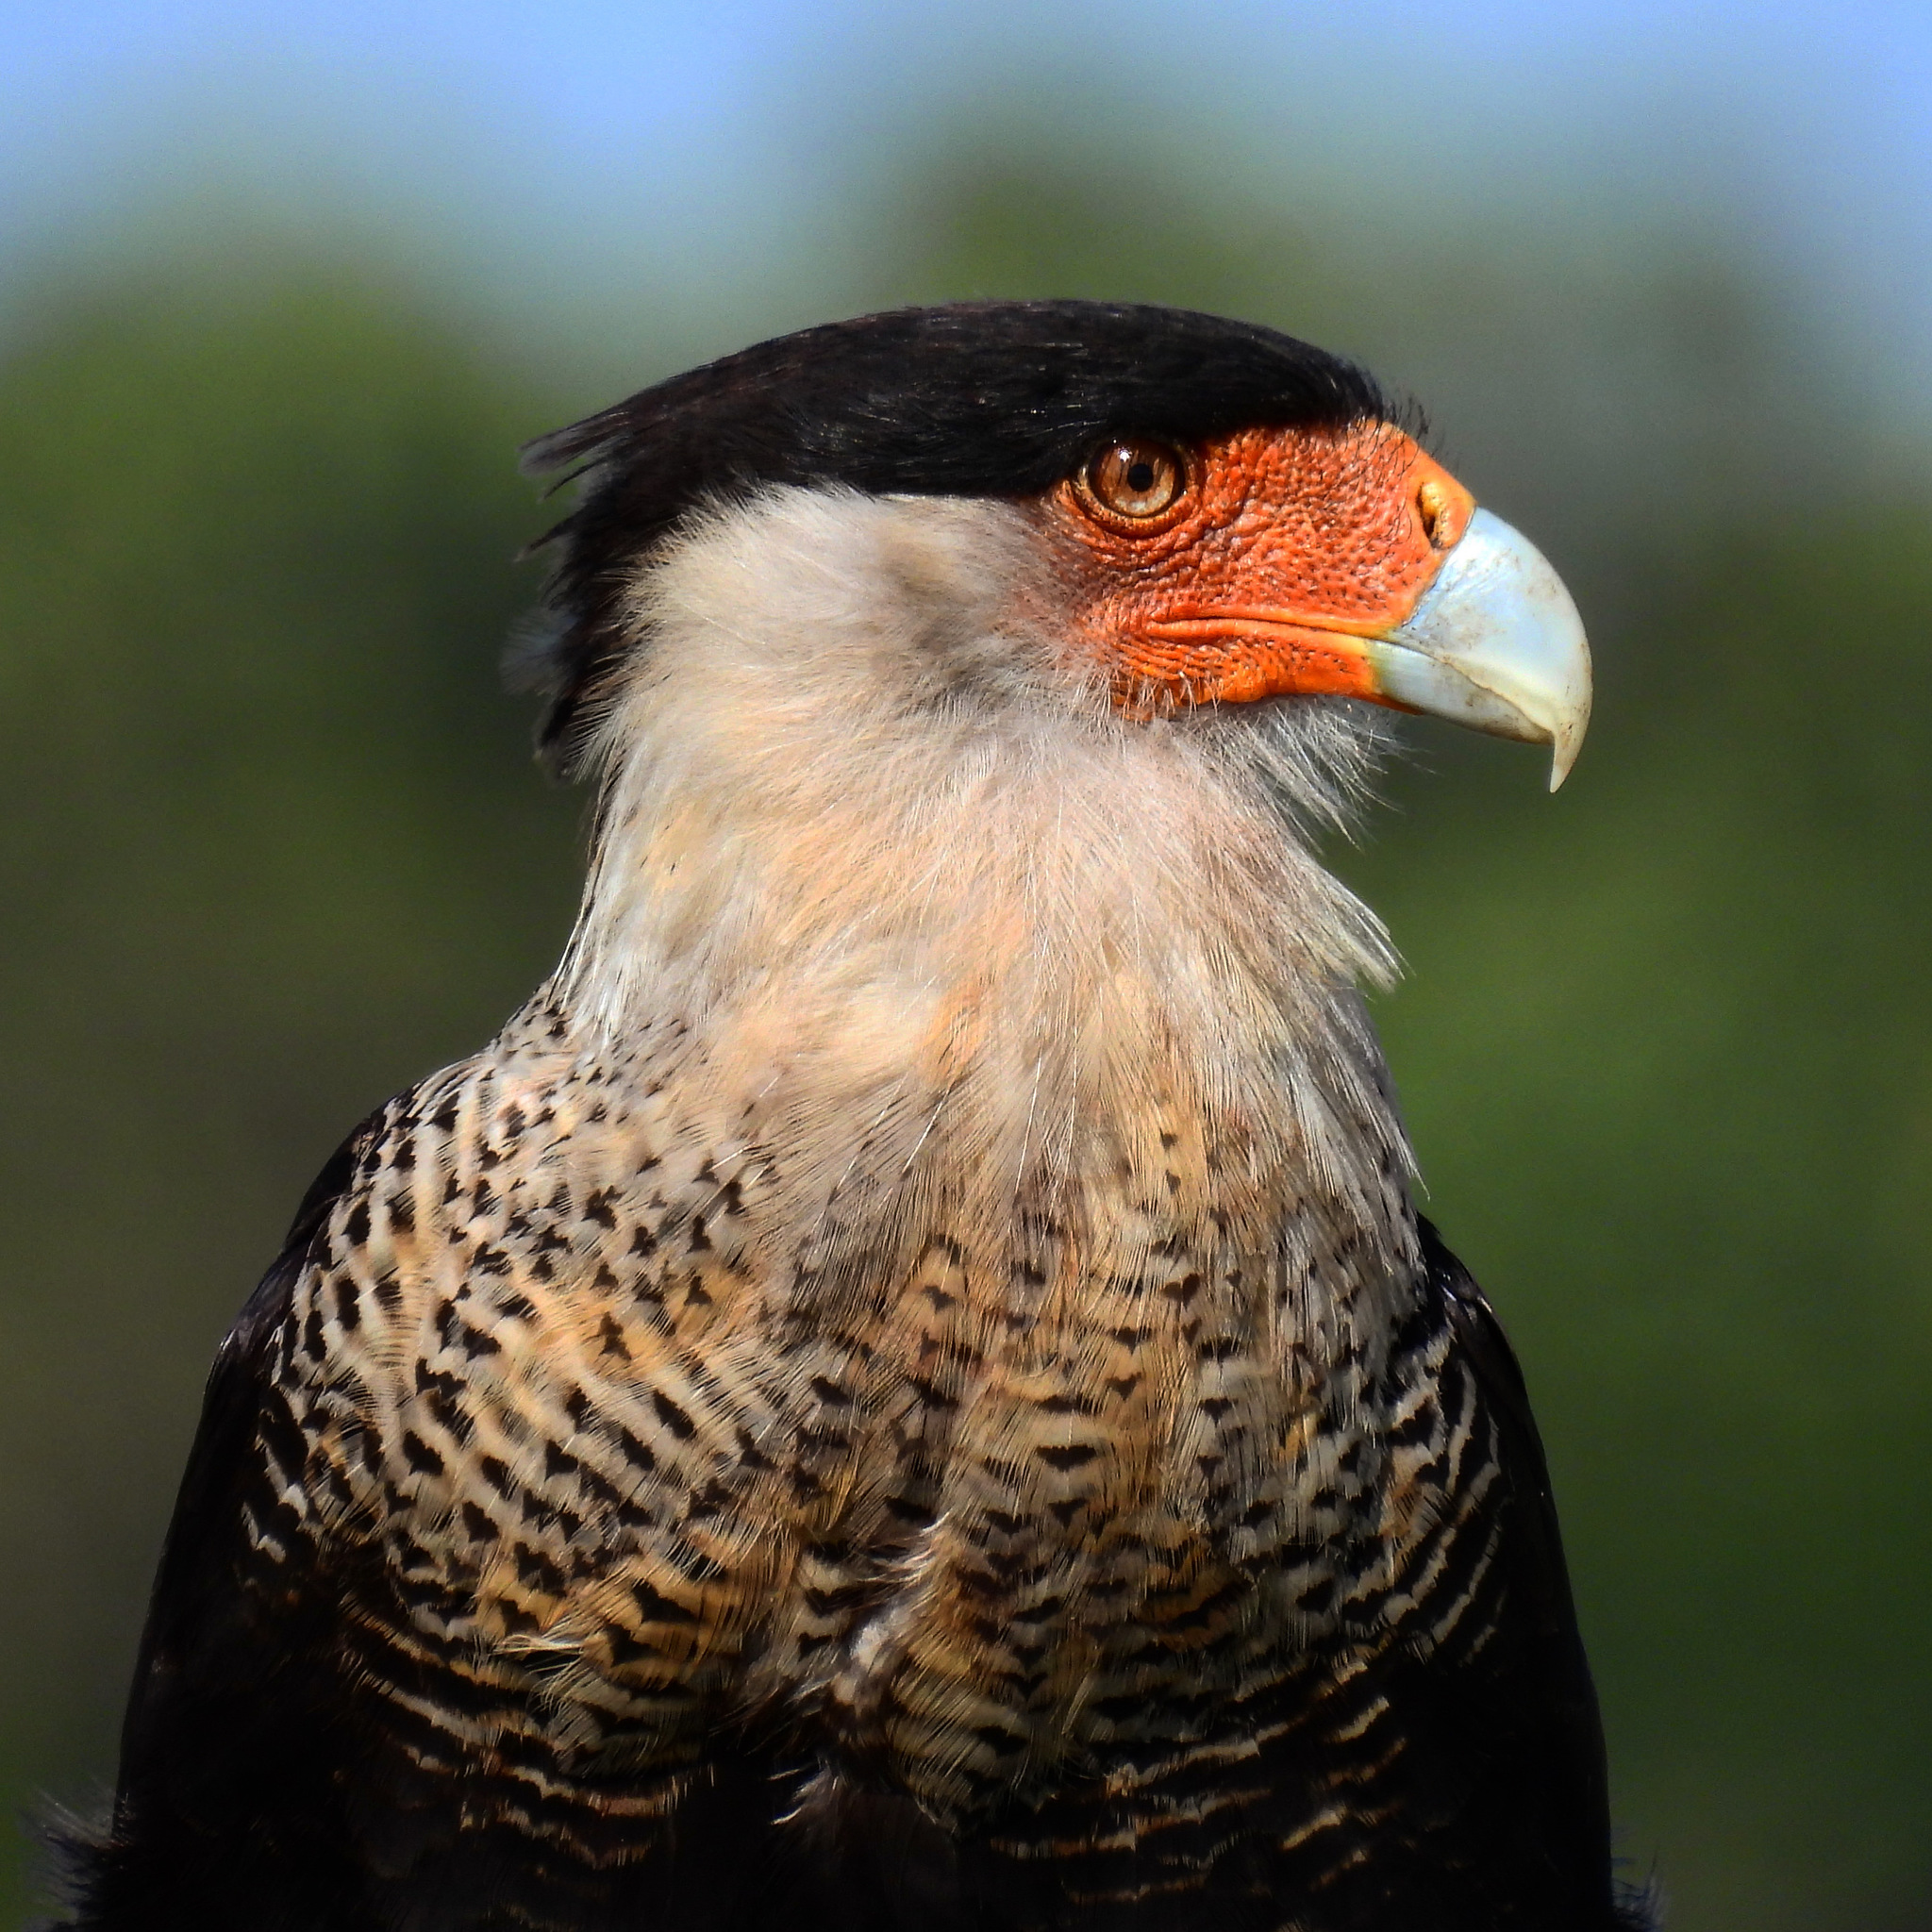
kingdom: Animalia
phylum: Chordata
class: Aves
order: Falconiformes
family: Falconidae
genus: Caracara
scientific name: Caracara plancus
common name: Southern caracara
